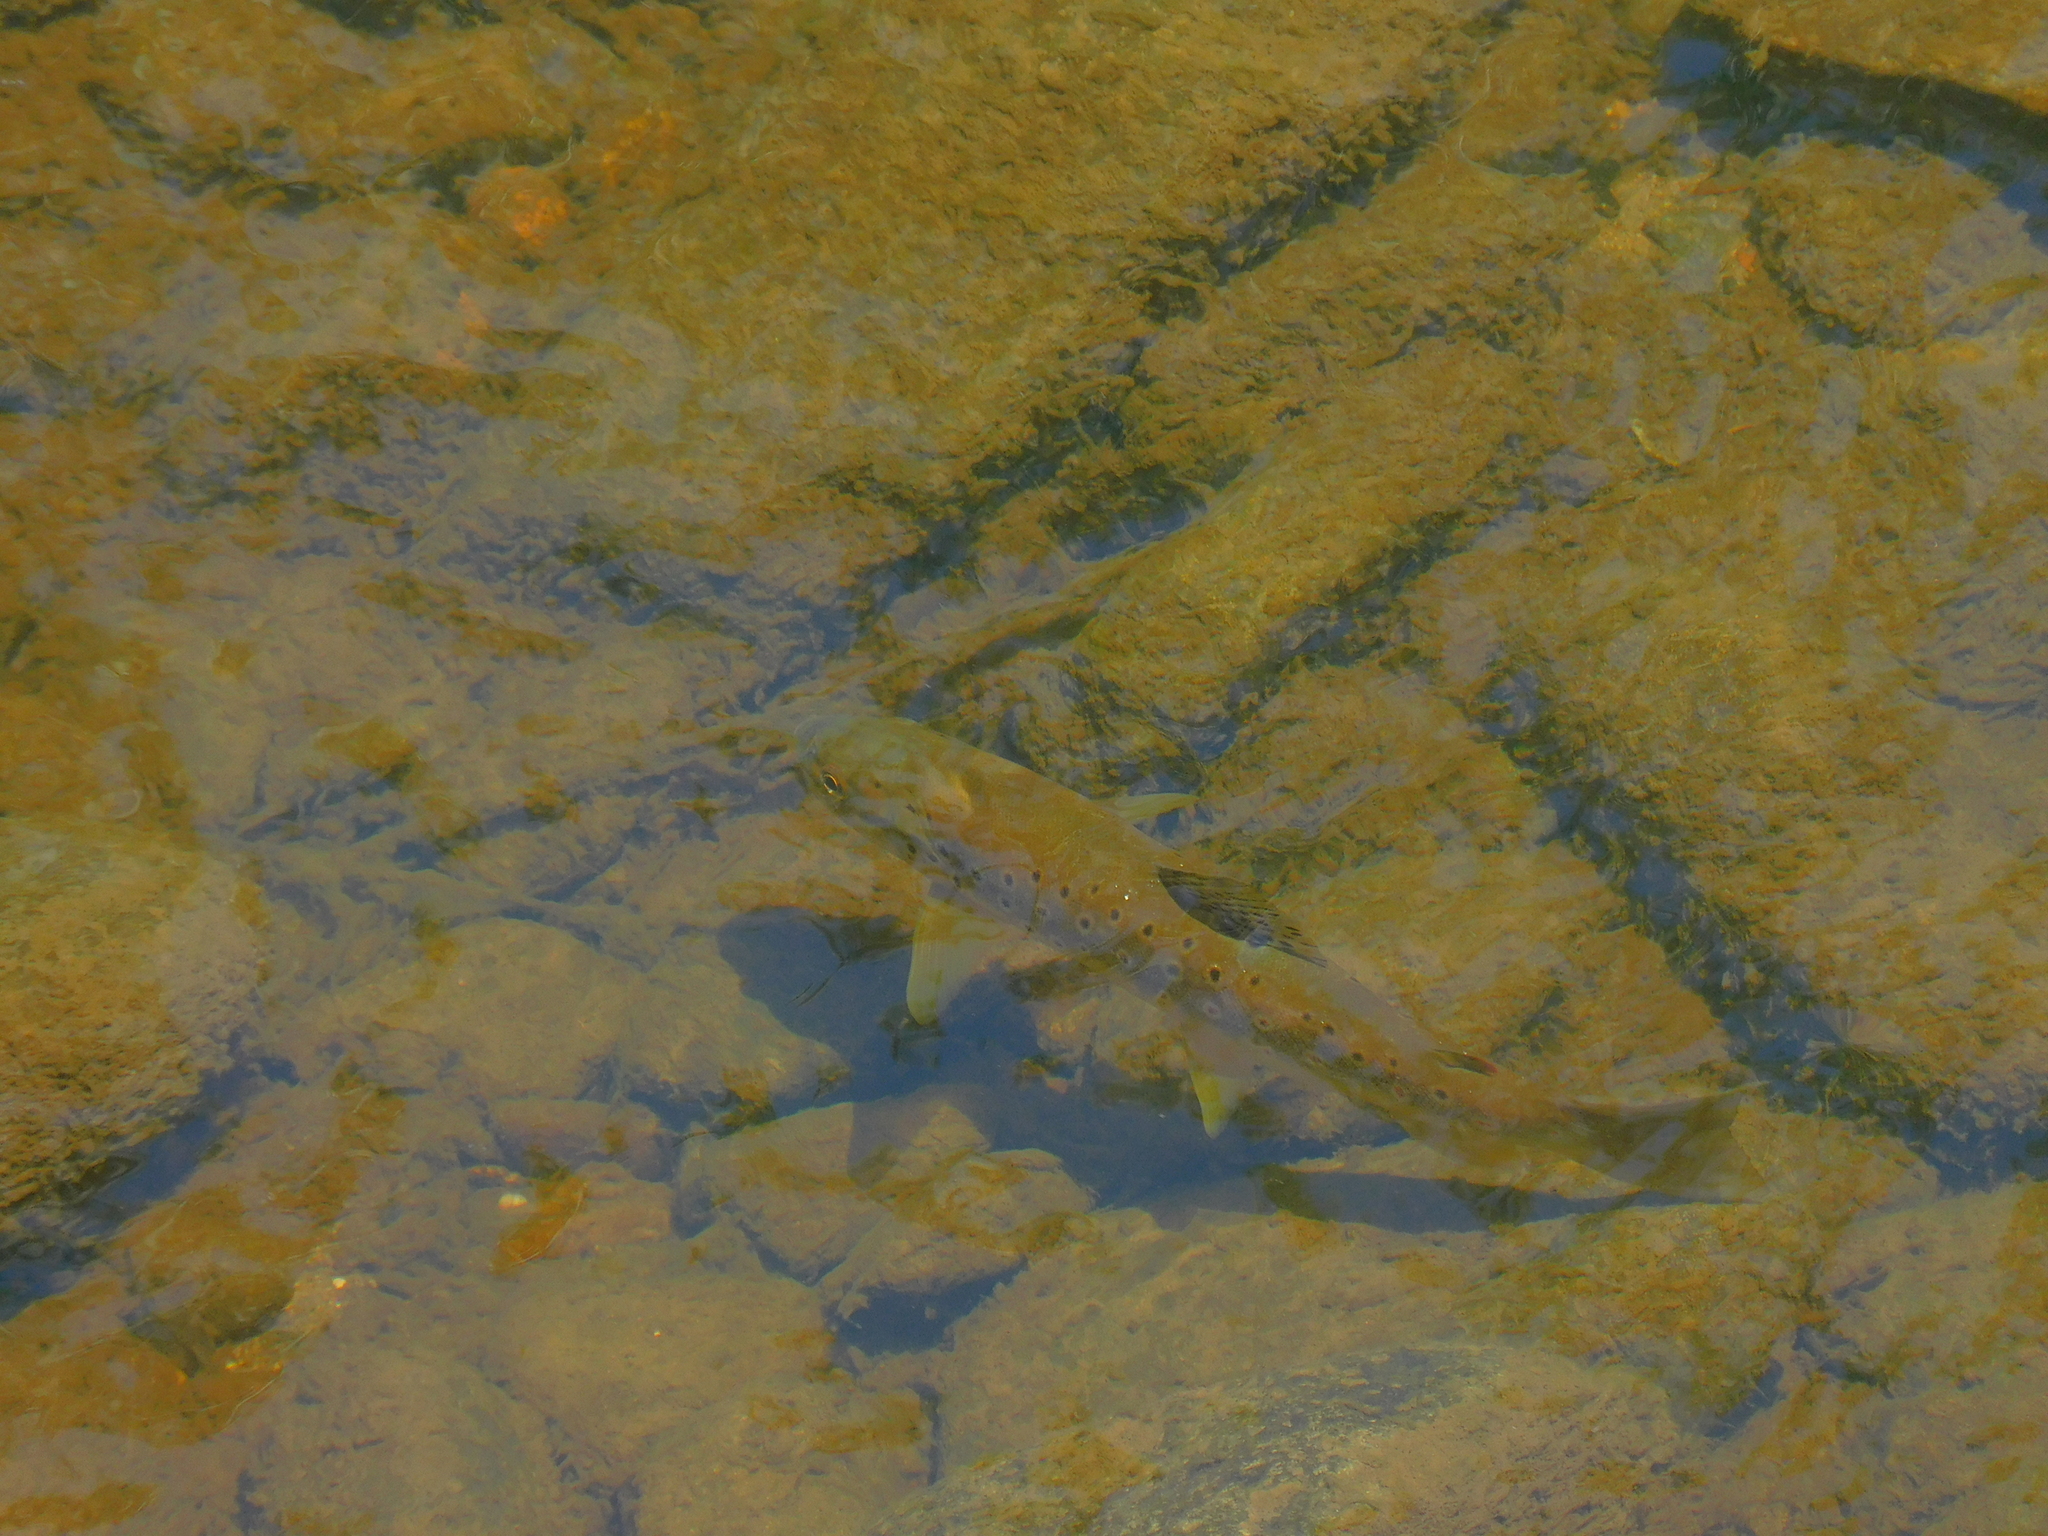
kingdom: Animalia
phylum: Chordata
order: Salmoniformes
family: Salmonidae
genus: Salmo
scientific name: Salmo trutta
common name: Brown trout
